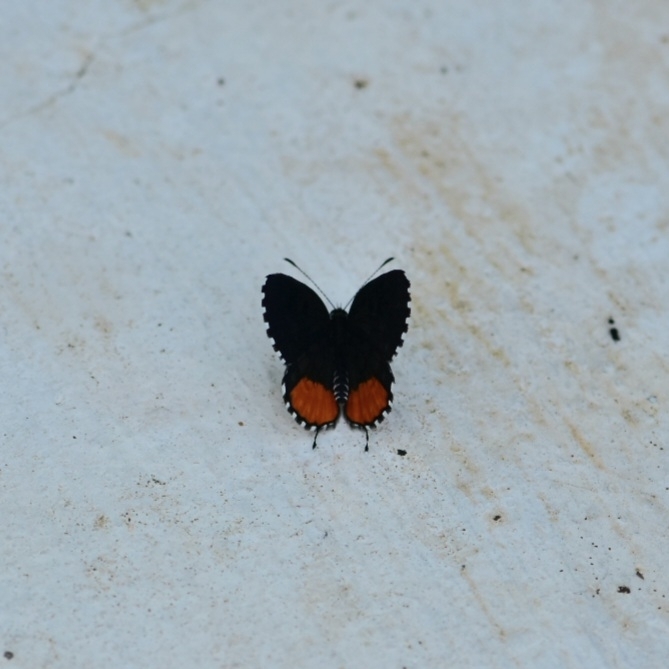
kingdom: Animalia
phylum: Arthropoda
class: Insecta
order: Lepidoptera
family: Lycaenidae
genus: Talicada
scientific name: Talicada nyseus
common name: Red pierrot
